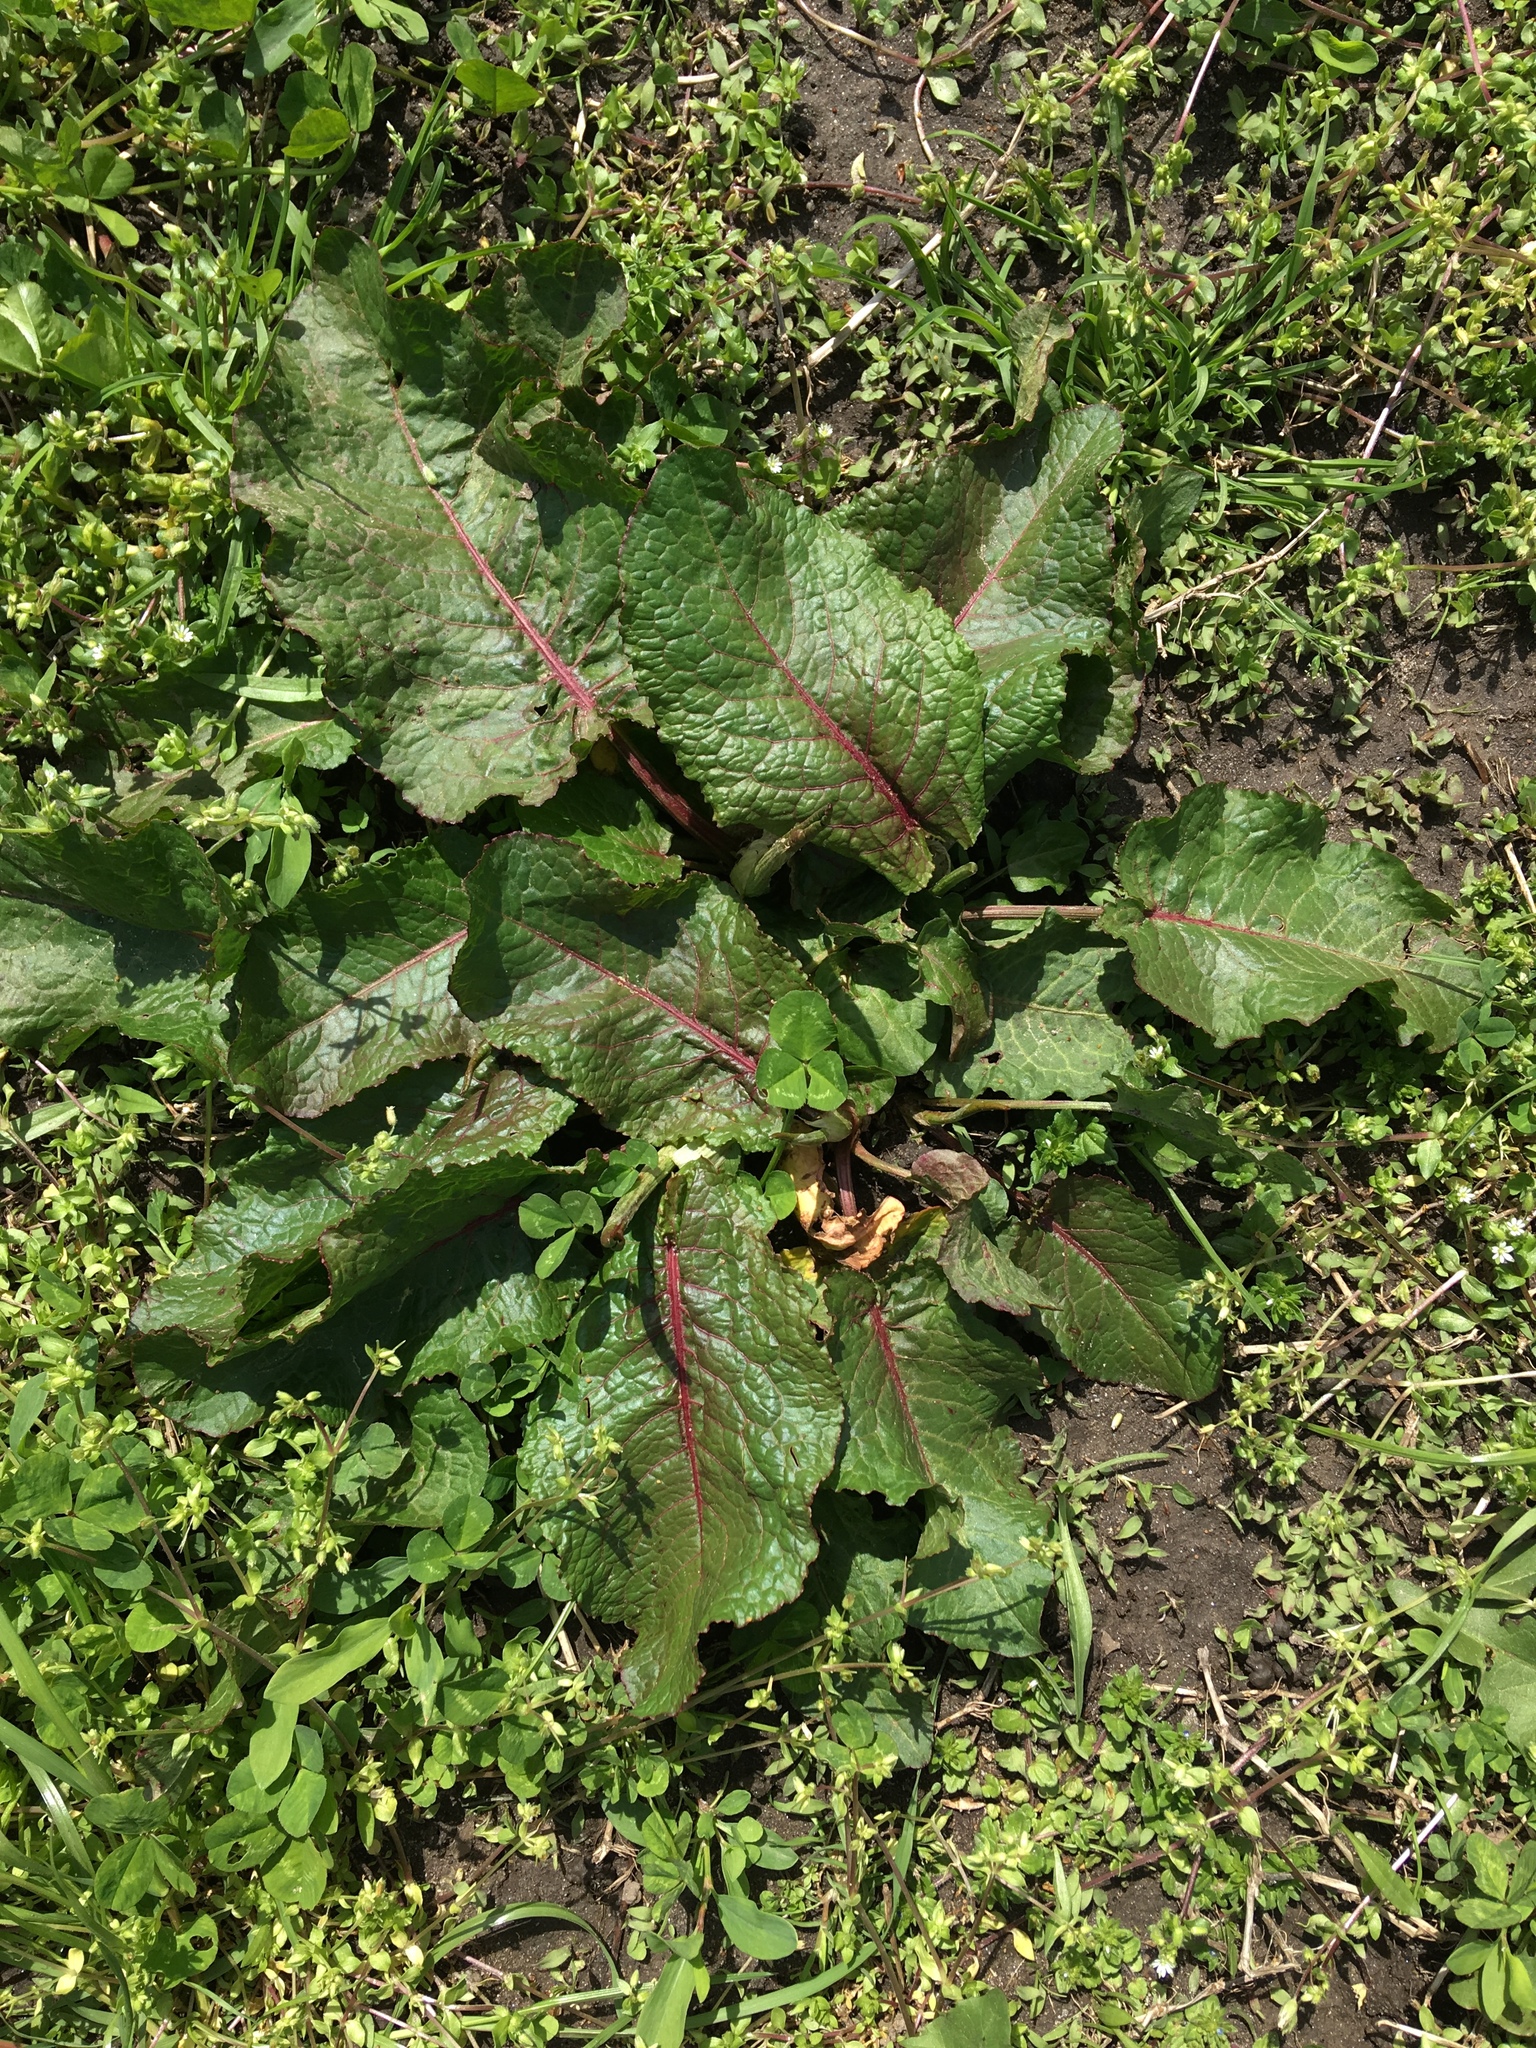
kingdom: Plantae
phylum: Tracheophyta
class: Magnoliopsida
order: Caryophyllales
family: Polygonaceae
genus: Rumex
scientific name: Rumex obtusifolius
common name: Bitter dock
